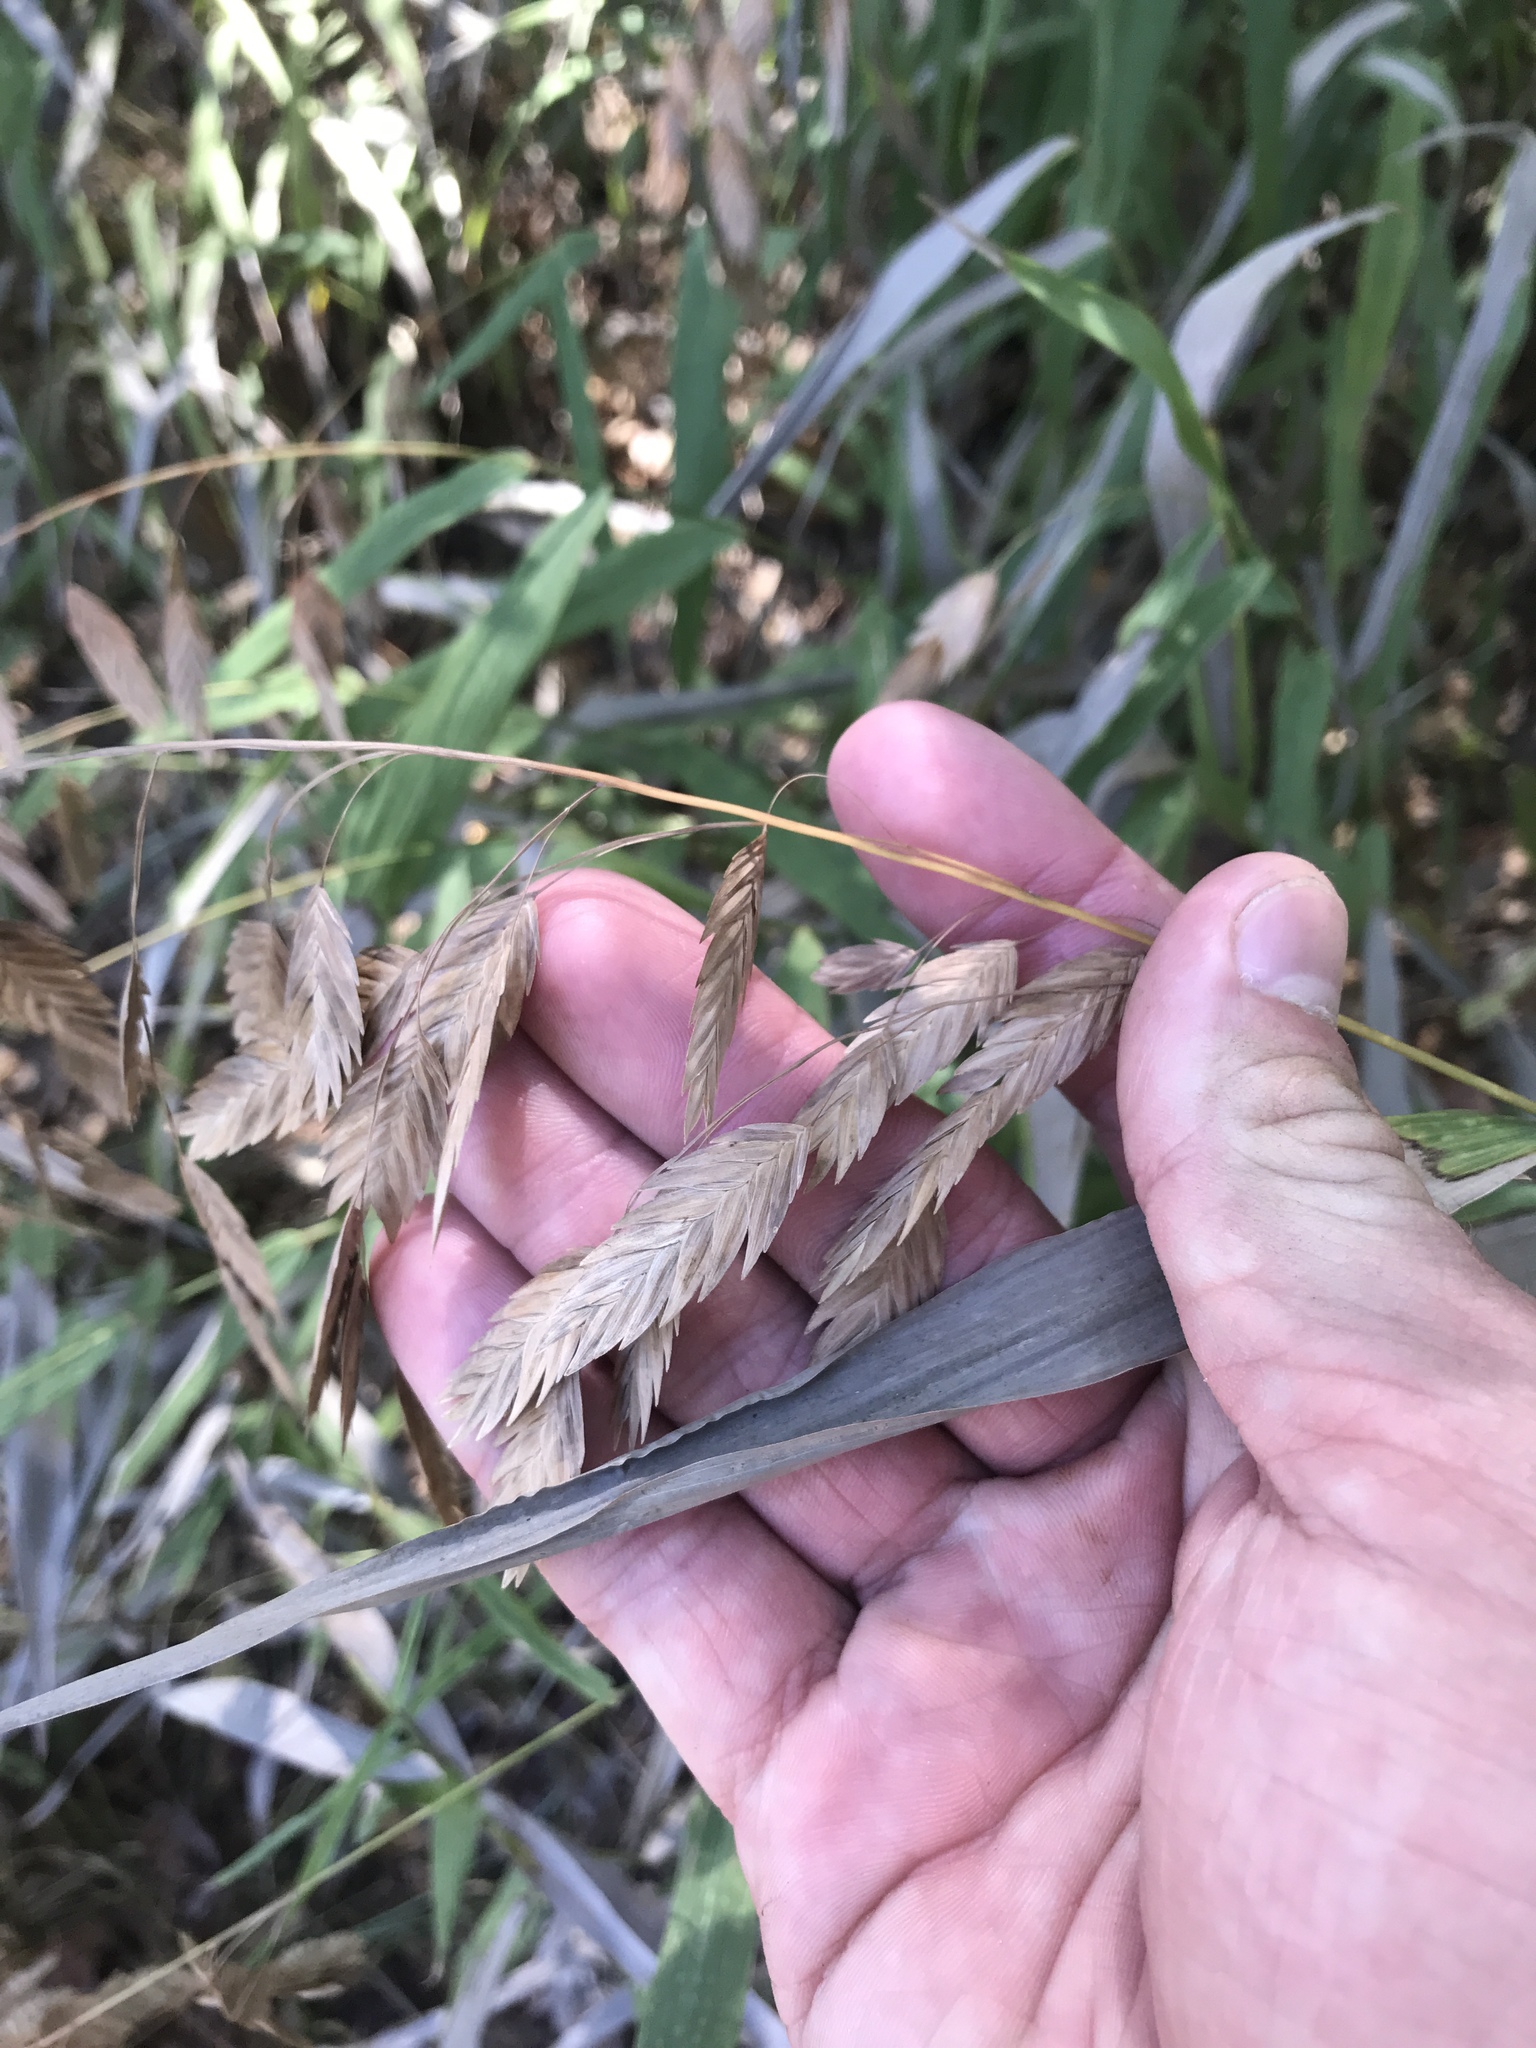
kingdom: Plantae
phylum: Tracheophyta
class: Liliopsida
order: Poales
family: Poaceae
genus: Chasmanthium
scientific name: Chasmanthium latifolium
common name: Broad-leaved chasmanthium
